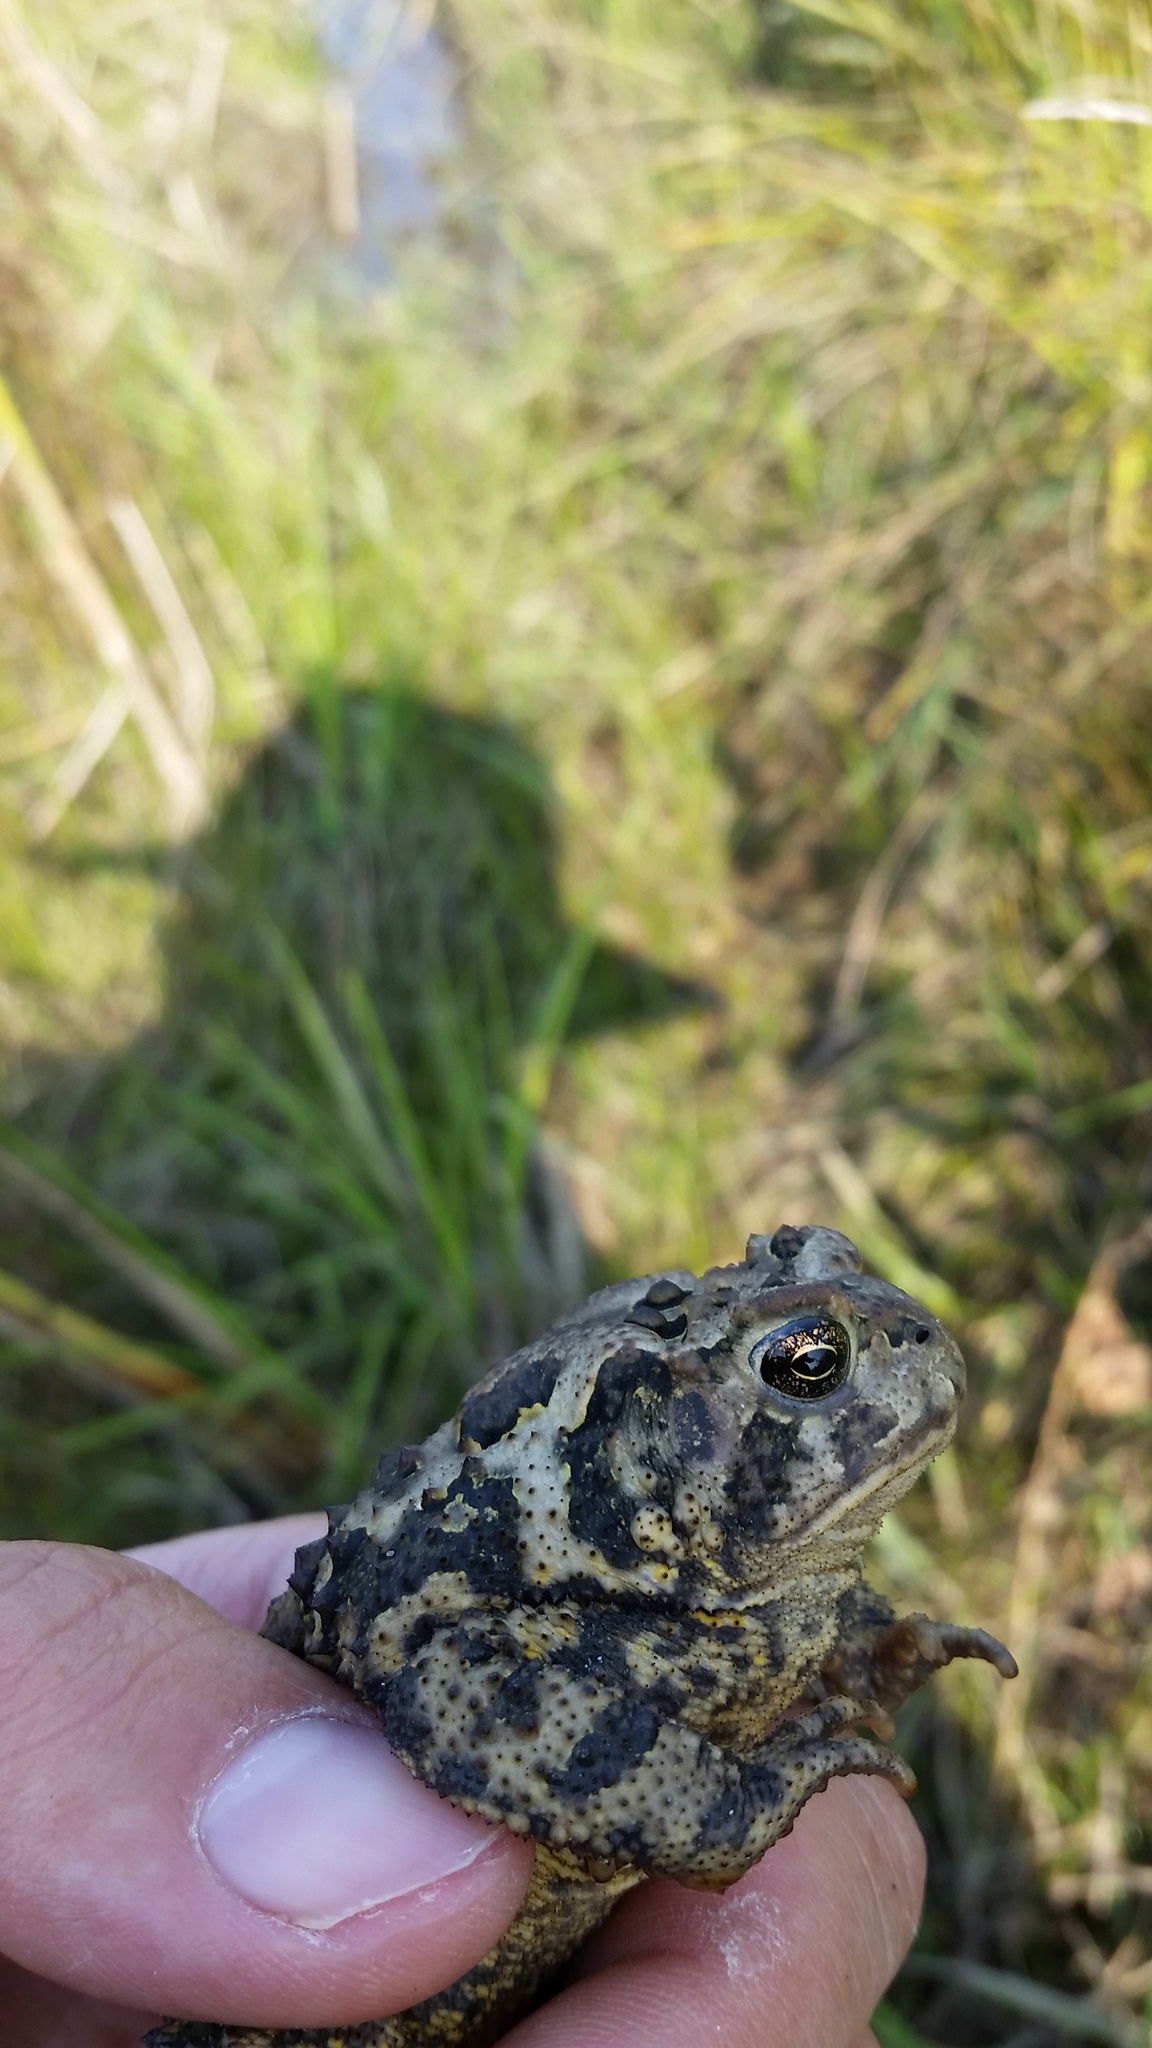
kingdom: Animalia
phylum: Chordata
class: Amphibia
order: Anura
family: Bufonidae
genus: Anaxyrus
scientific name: Anaxyrus americanus
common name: American toad
